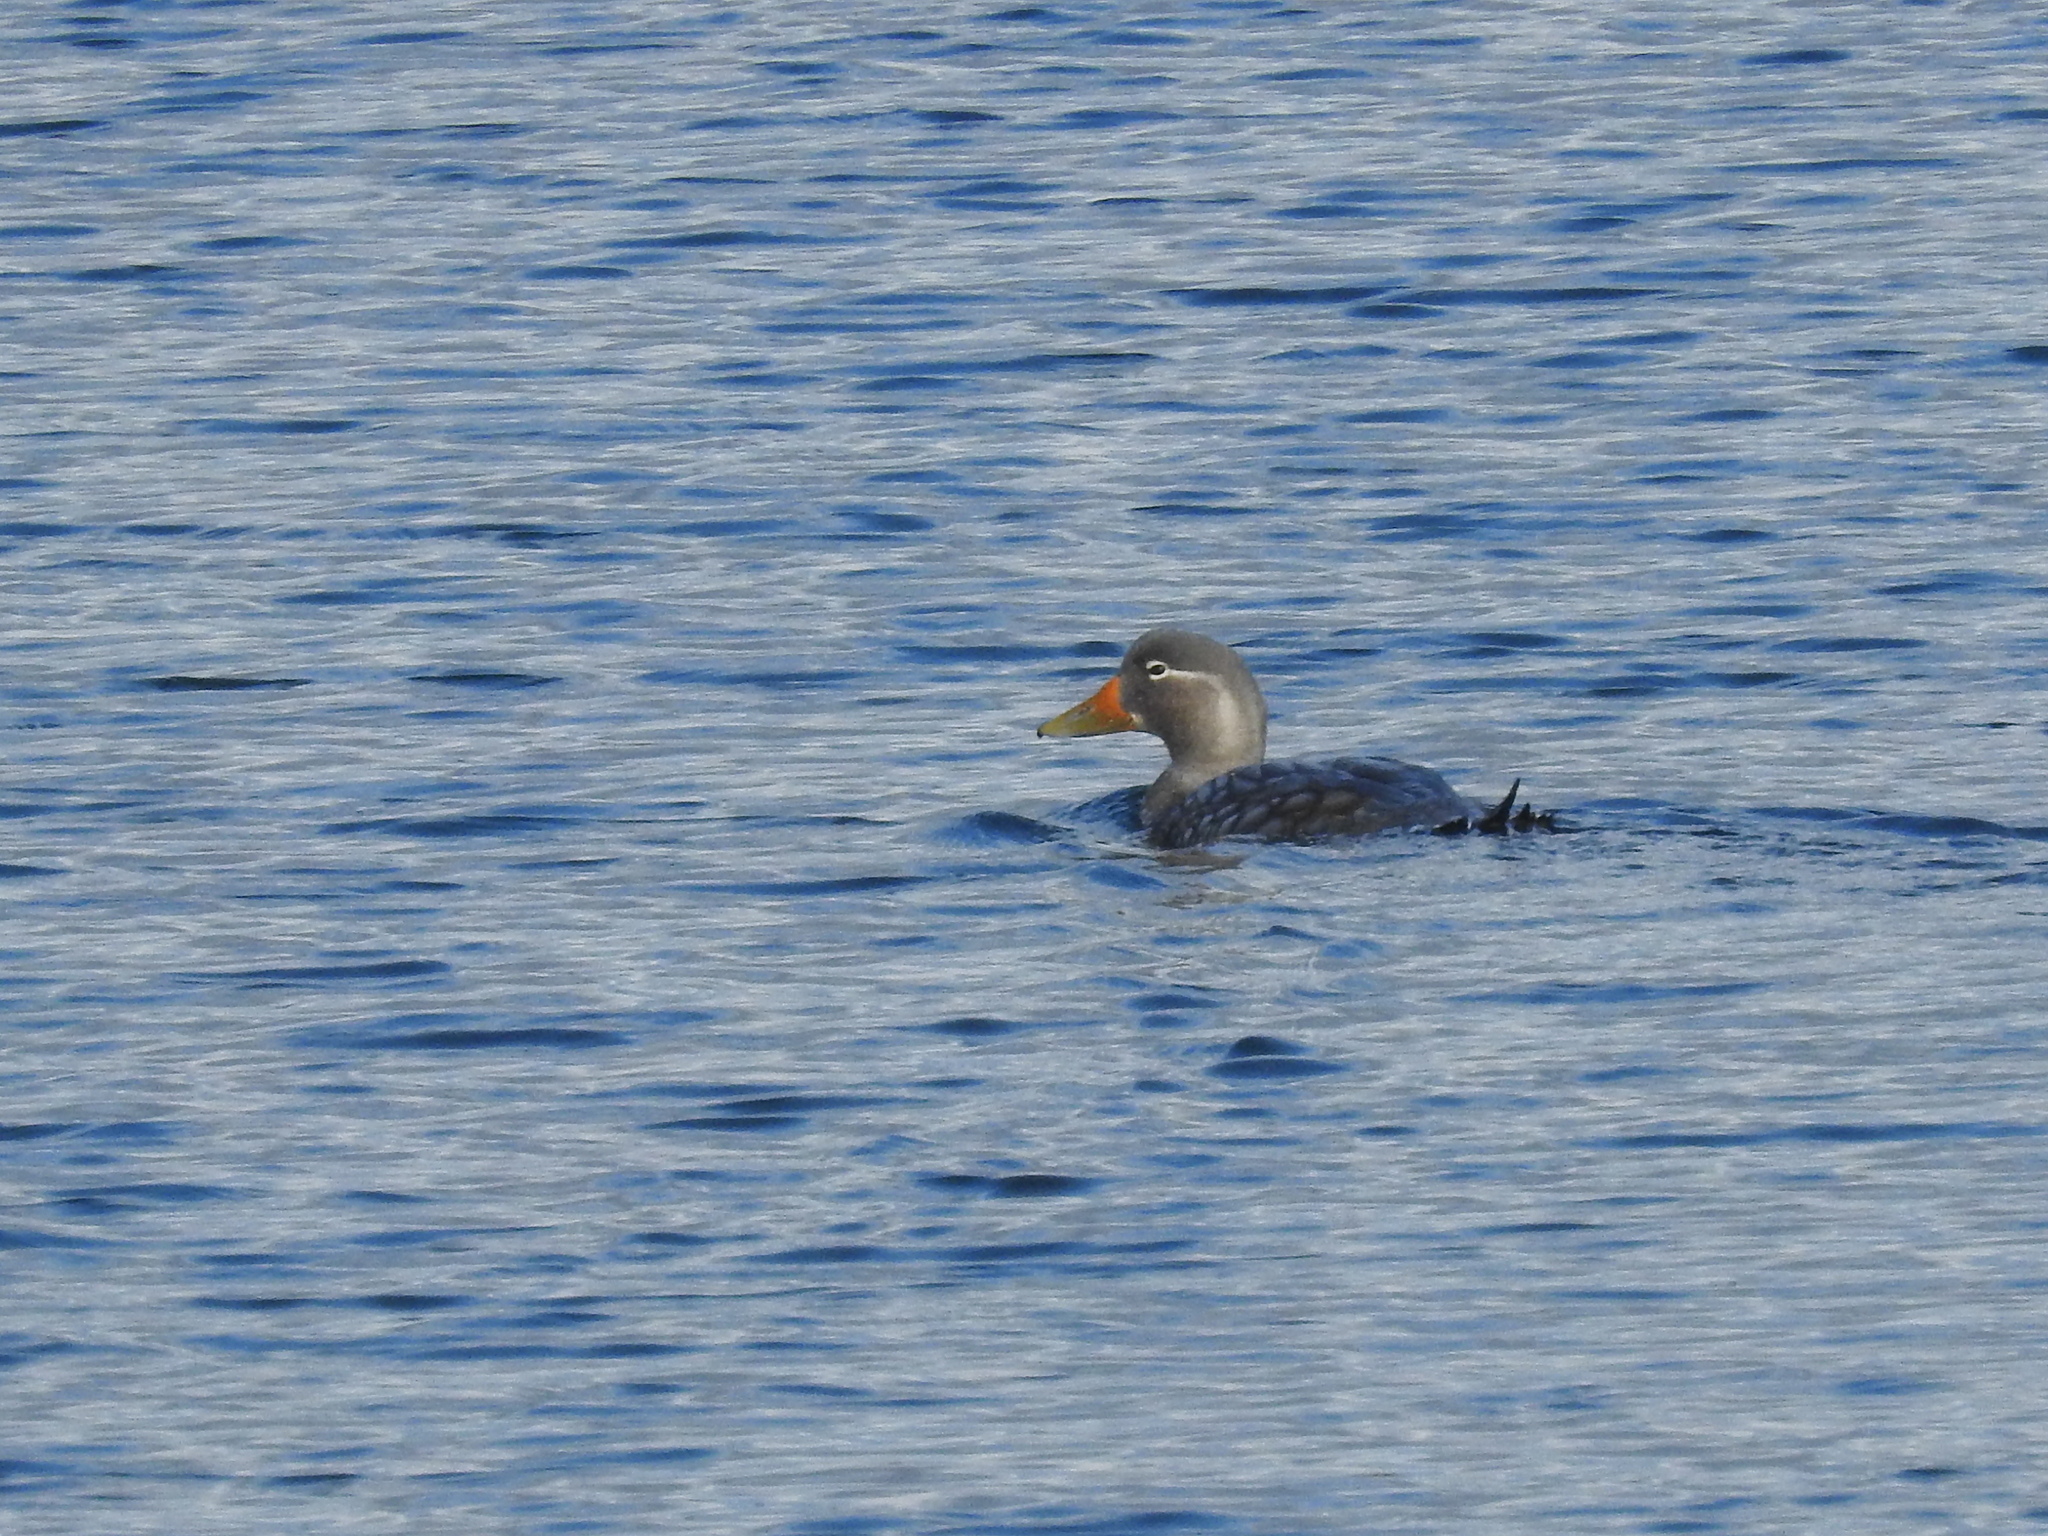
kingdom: Animalia
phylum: Chordata
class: Aves
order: Anseriformes
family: Anatidae
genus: Tachyeres
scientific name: Tachyeres patachonicus
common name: Flying steamer duck
